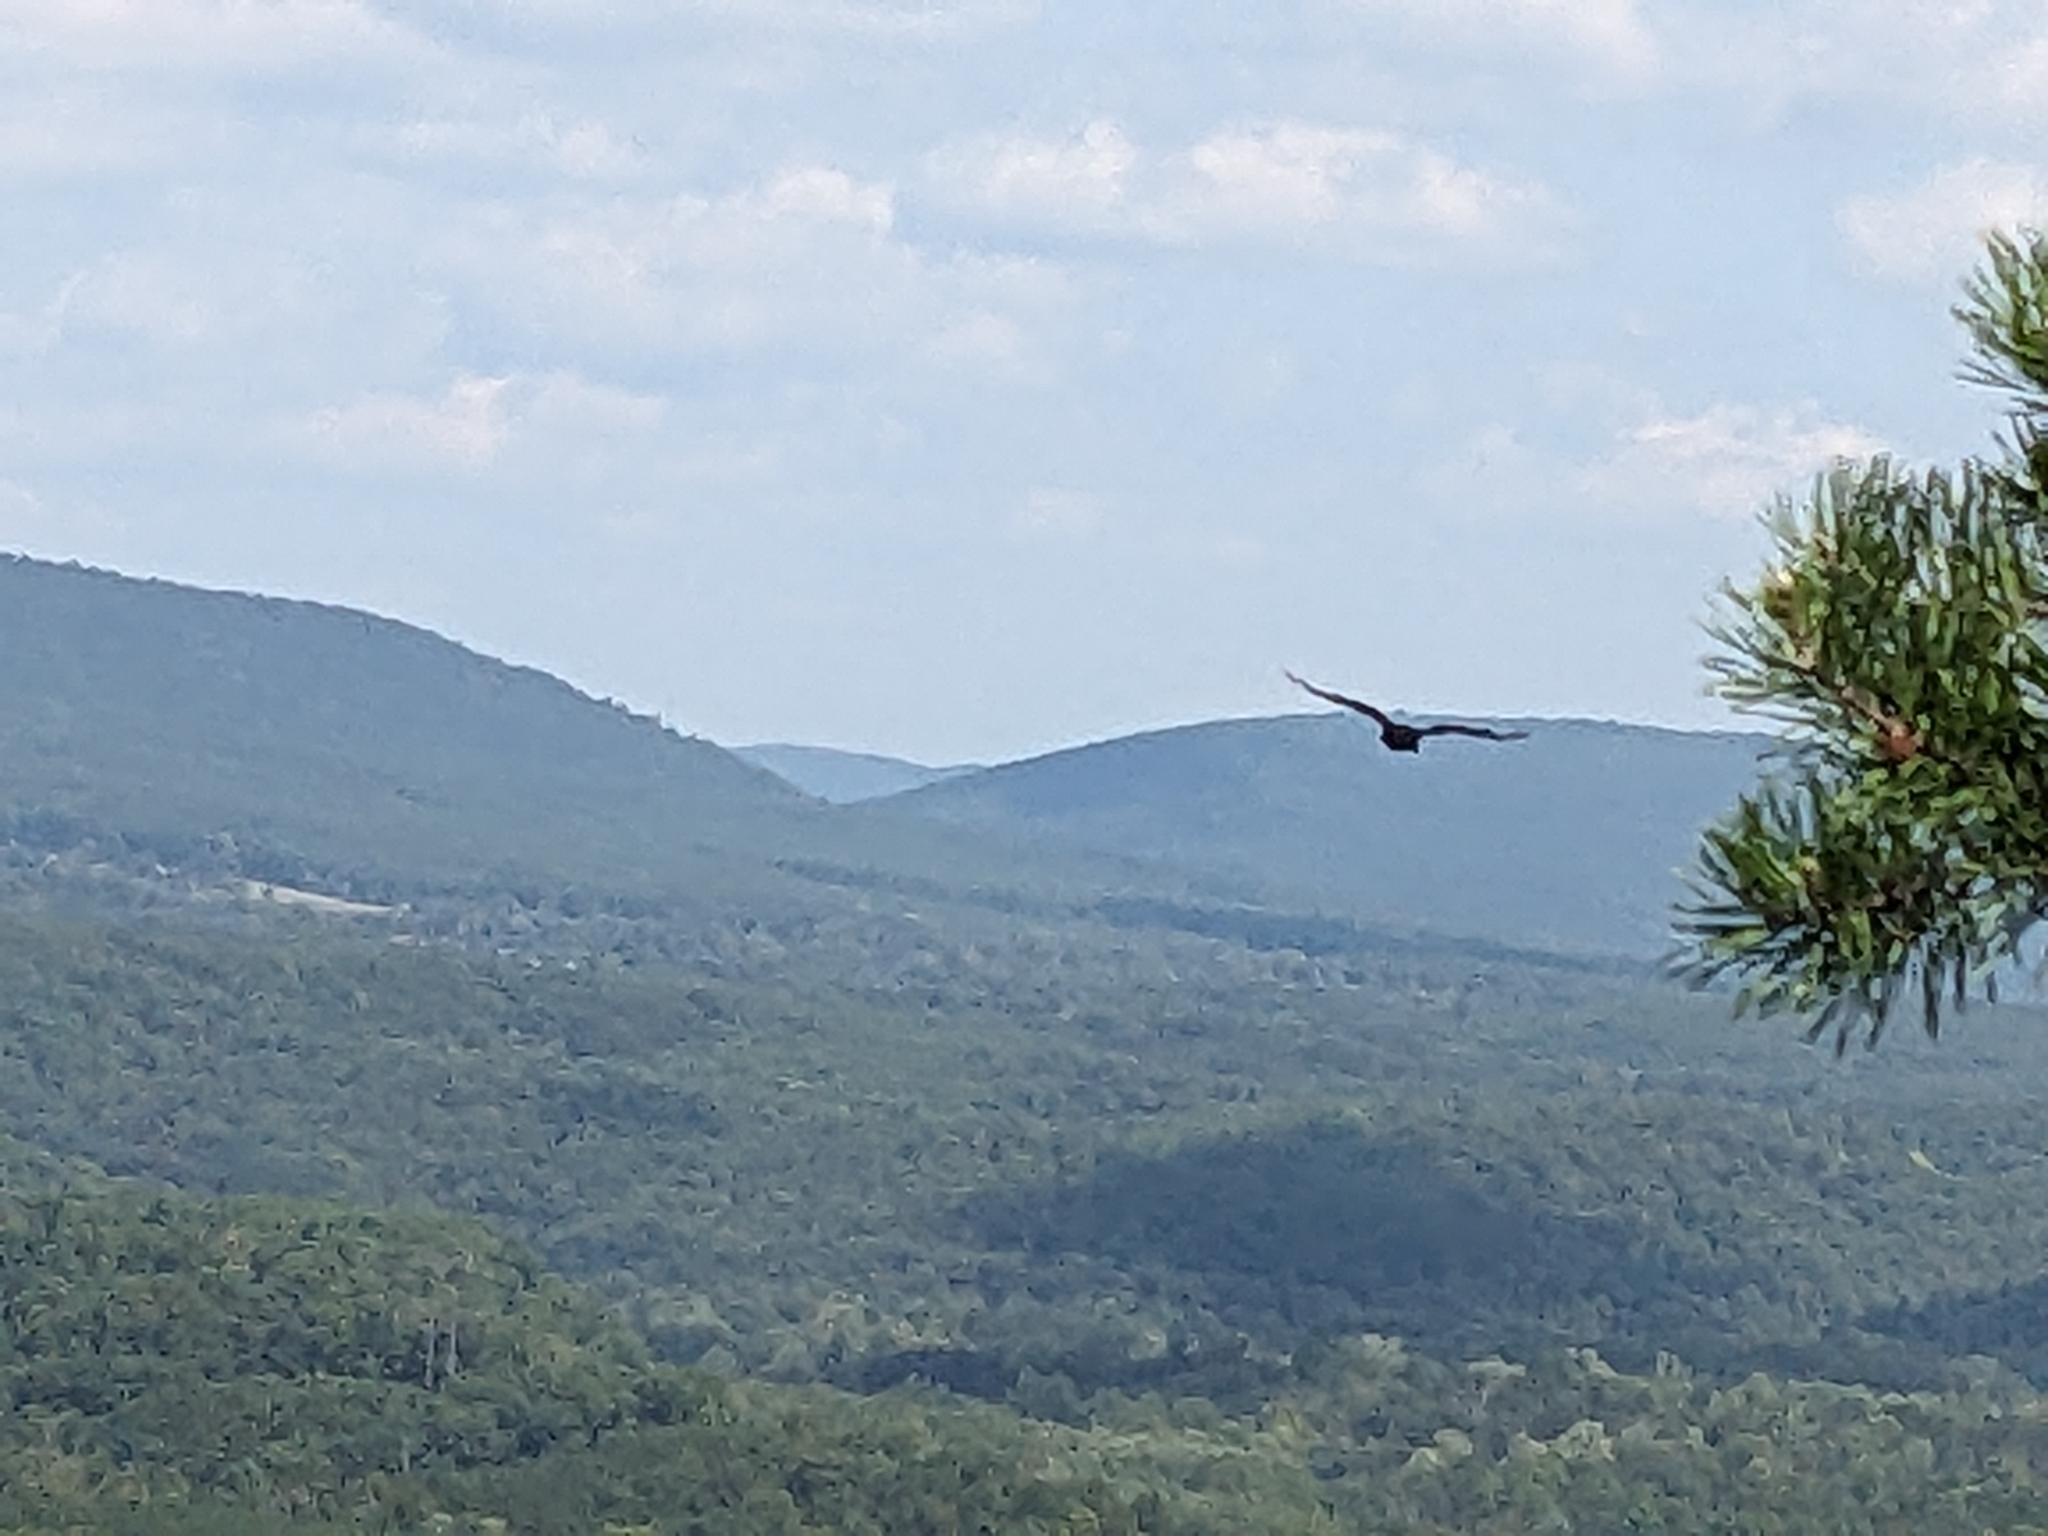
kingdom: Animalia
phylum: Chordata
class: Aves
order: Accipitriformes
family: Cathartidae
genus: Cathartes
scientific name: Cathartes aura
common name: Turkey vulture
